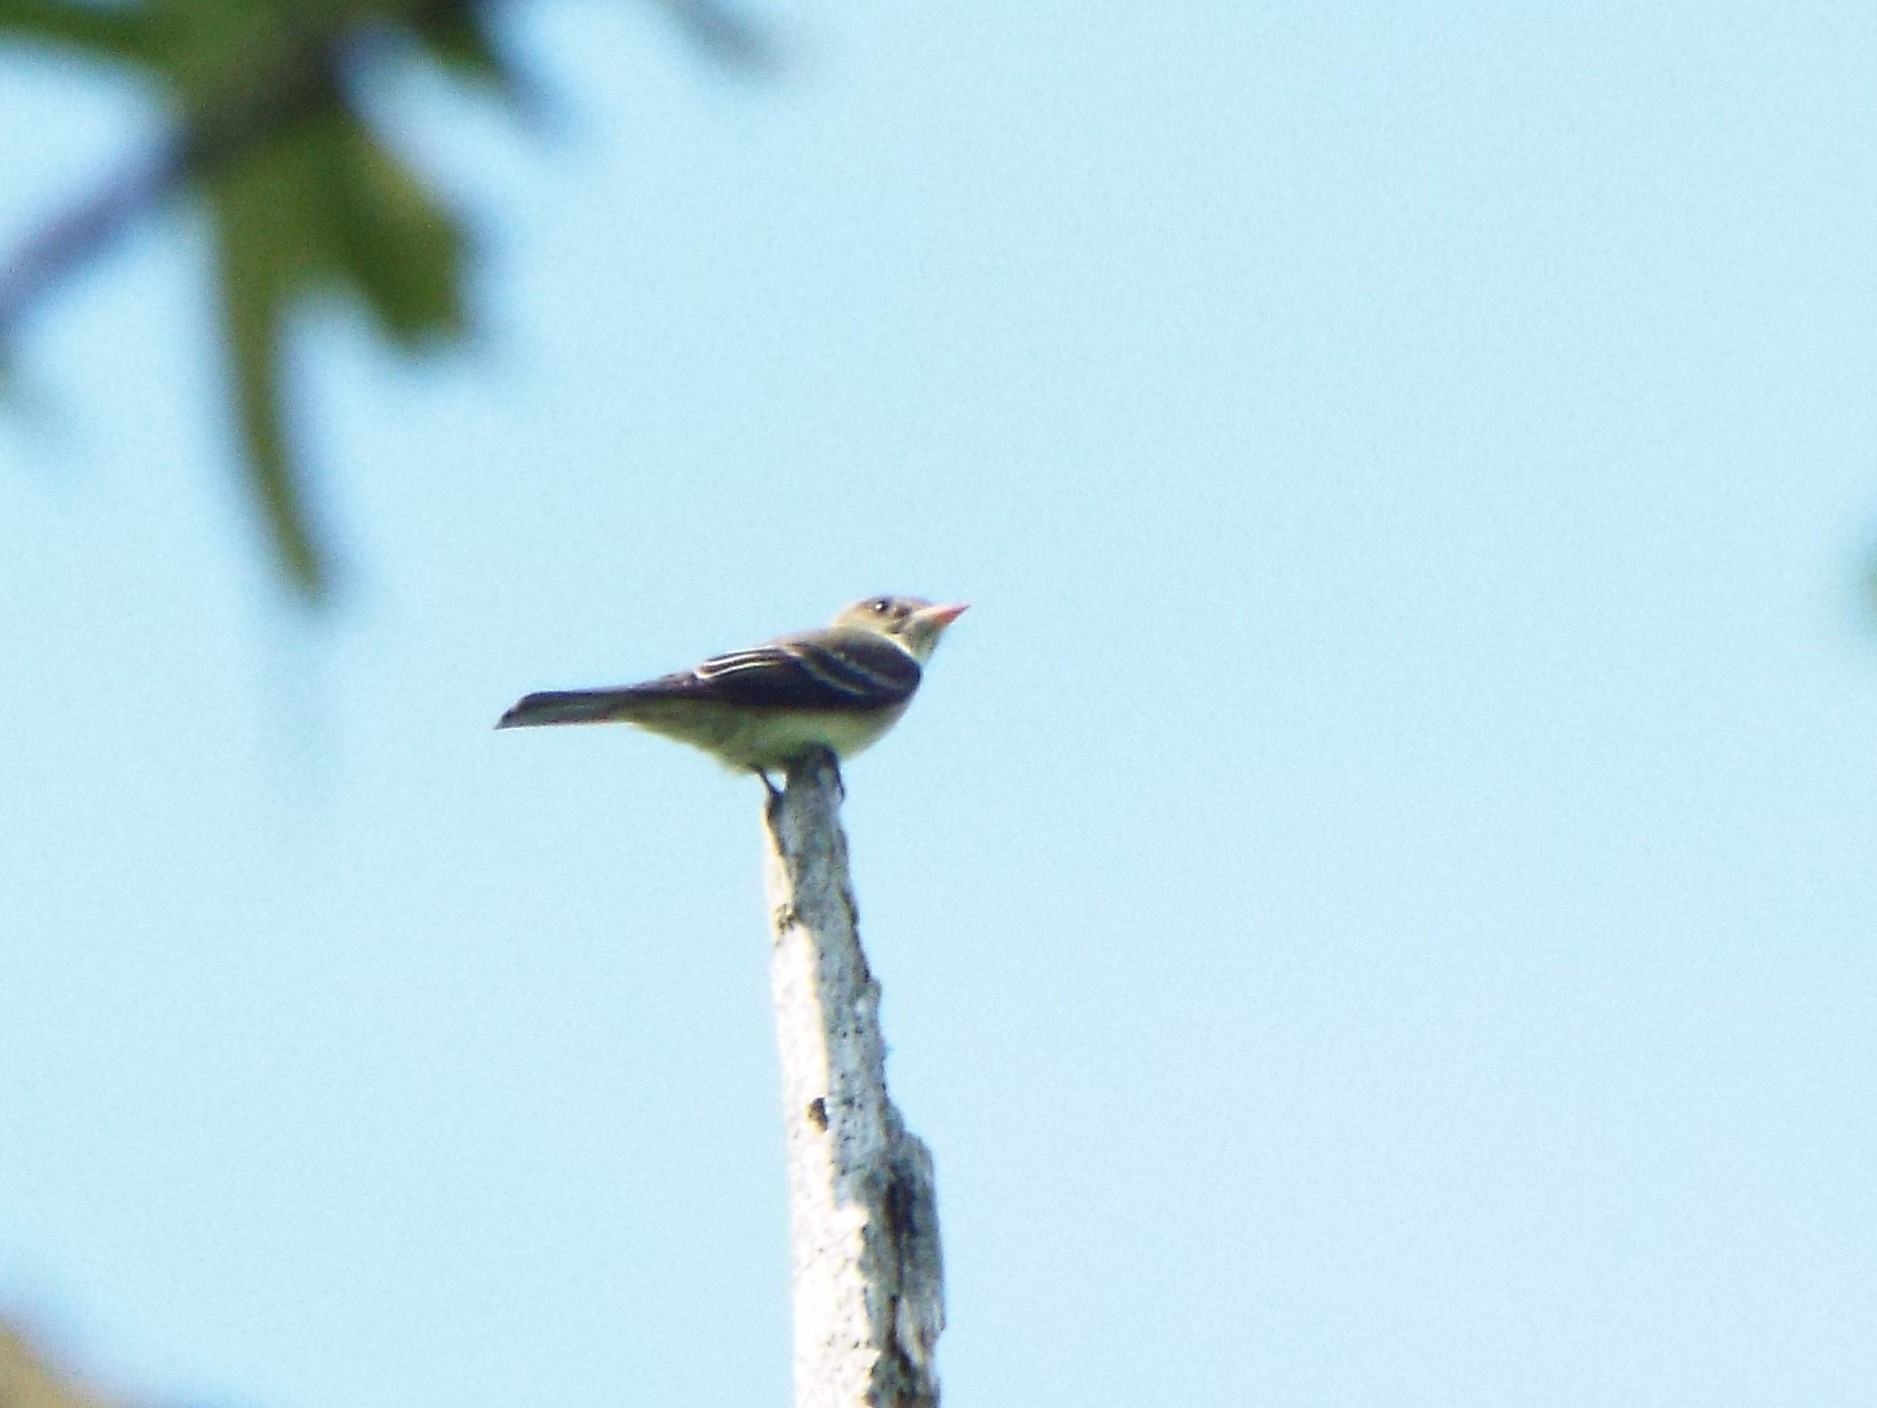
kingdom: Animalia
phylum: Chordata
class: Aves
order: Passeriformes
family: Tyrannidae
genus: Contopus
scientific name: Contopus virens
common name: Eastern wood-pewee
